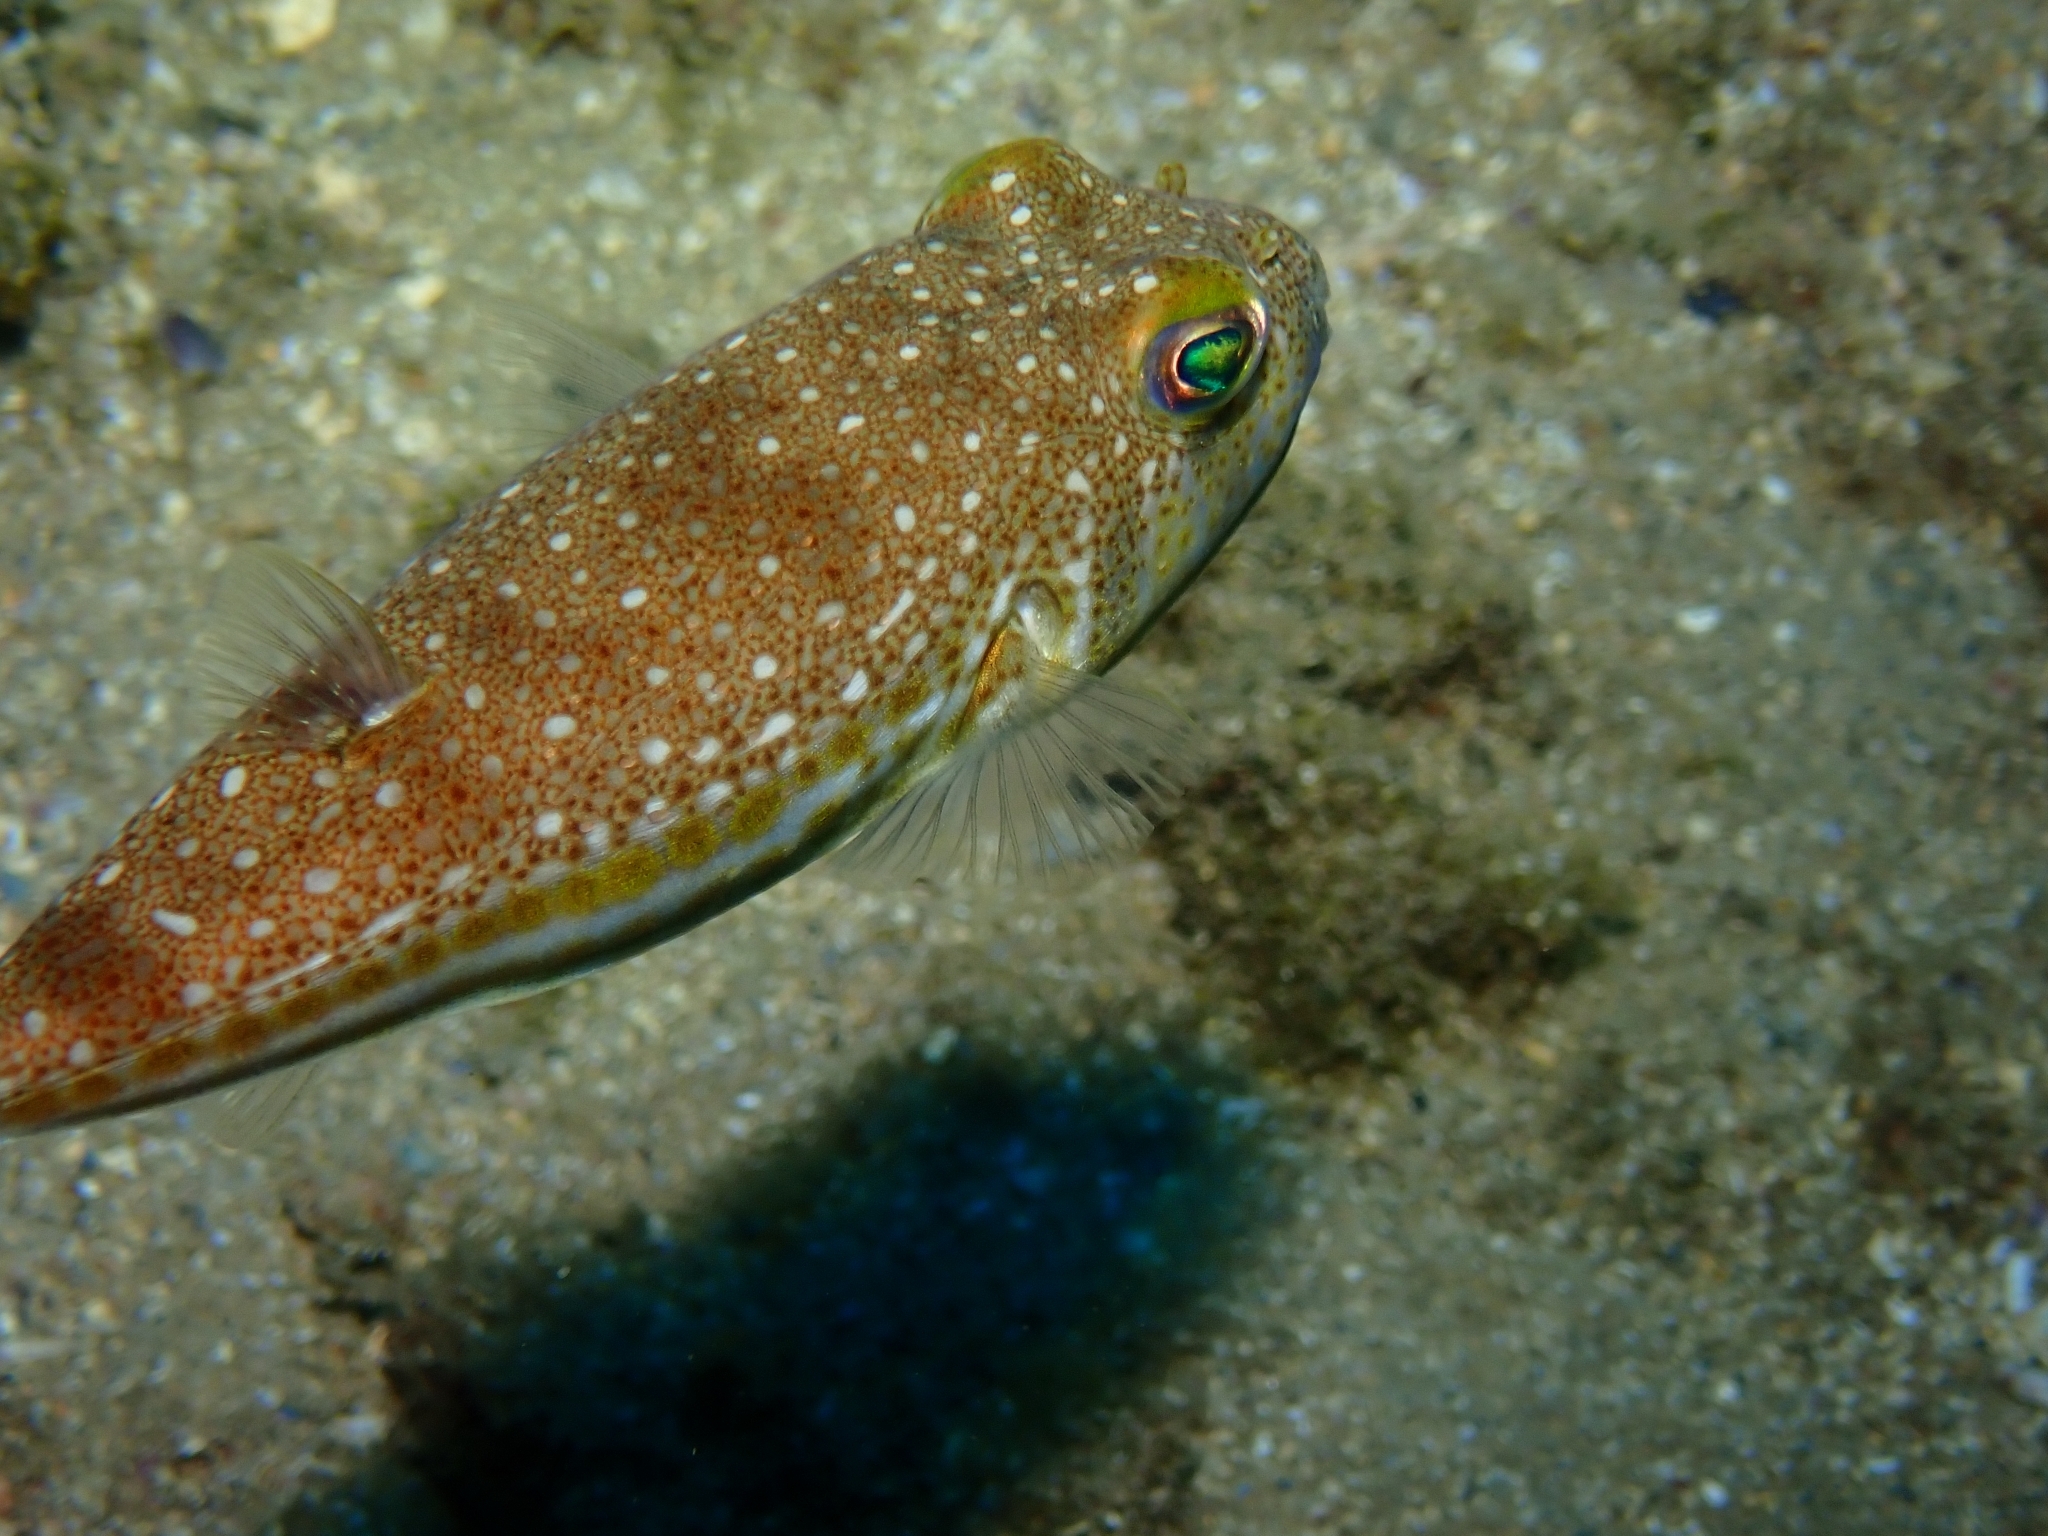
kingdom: Animalia
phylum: Chordata
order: Tetraodontiformes
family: Tetraodontidae
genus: Torquigener
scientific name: Torquigener flavimaculosus
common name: Studded pufferfish
